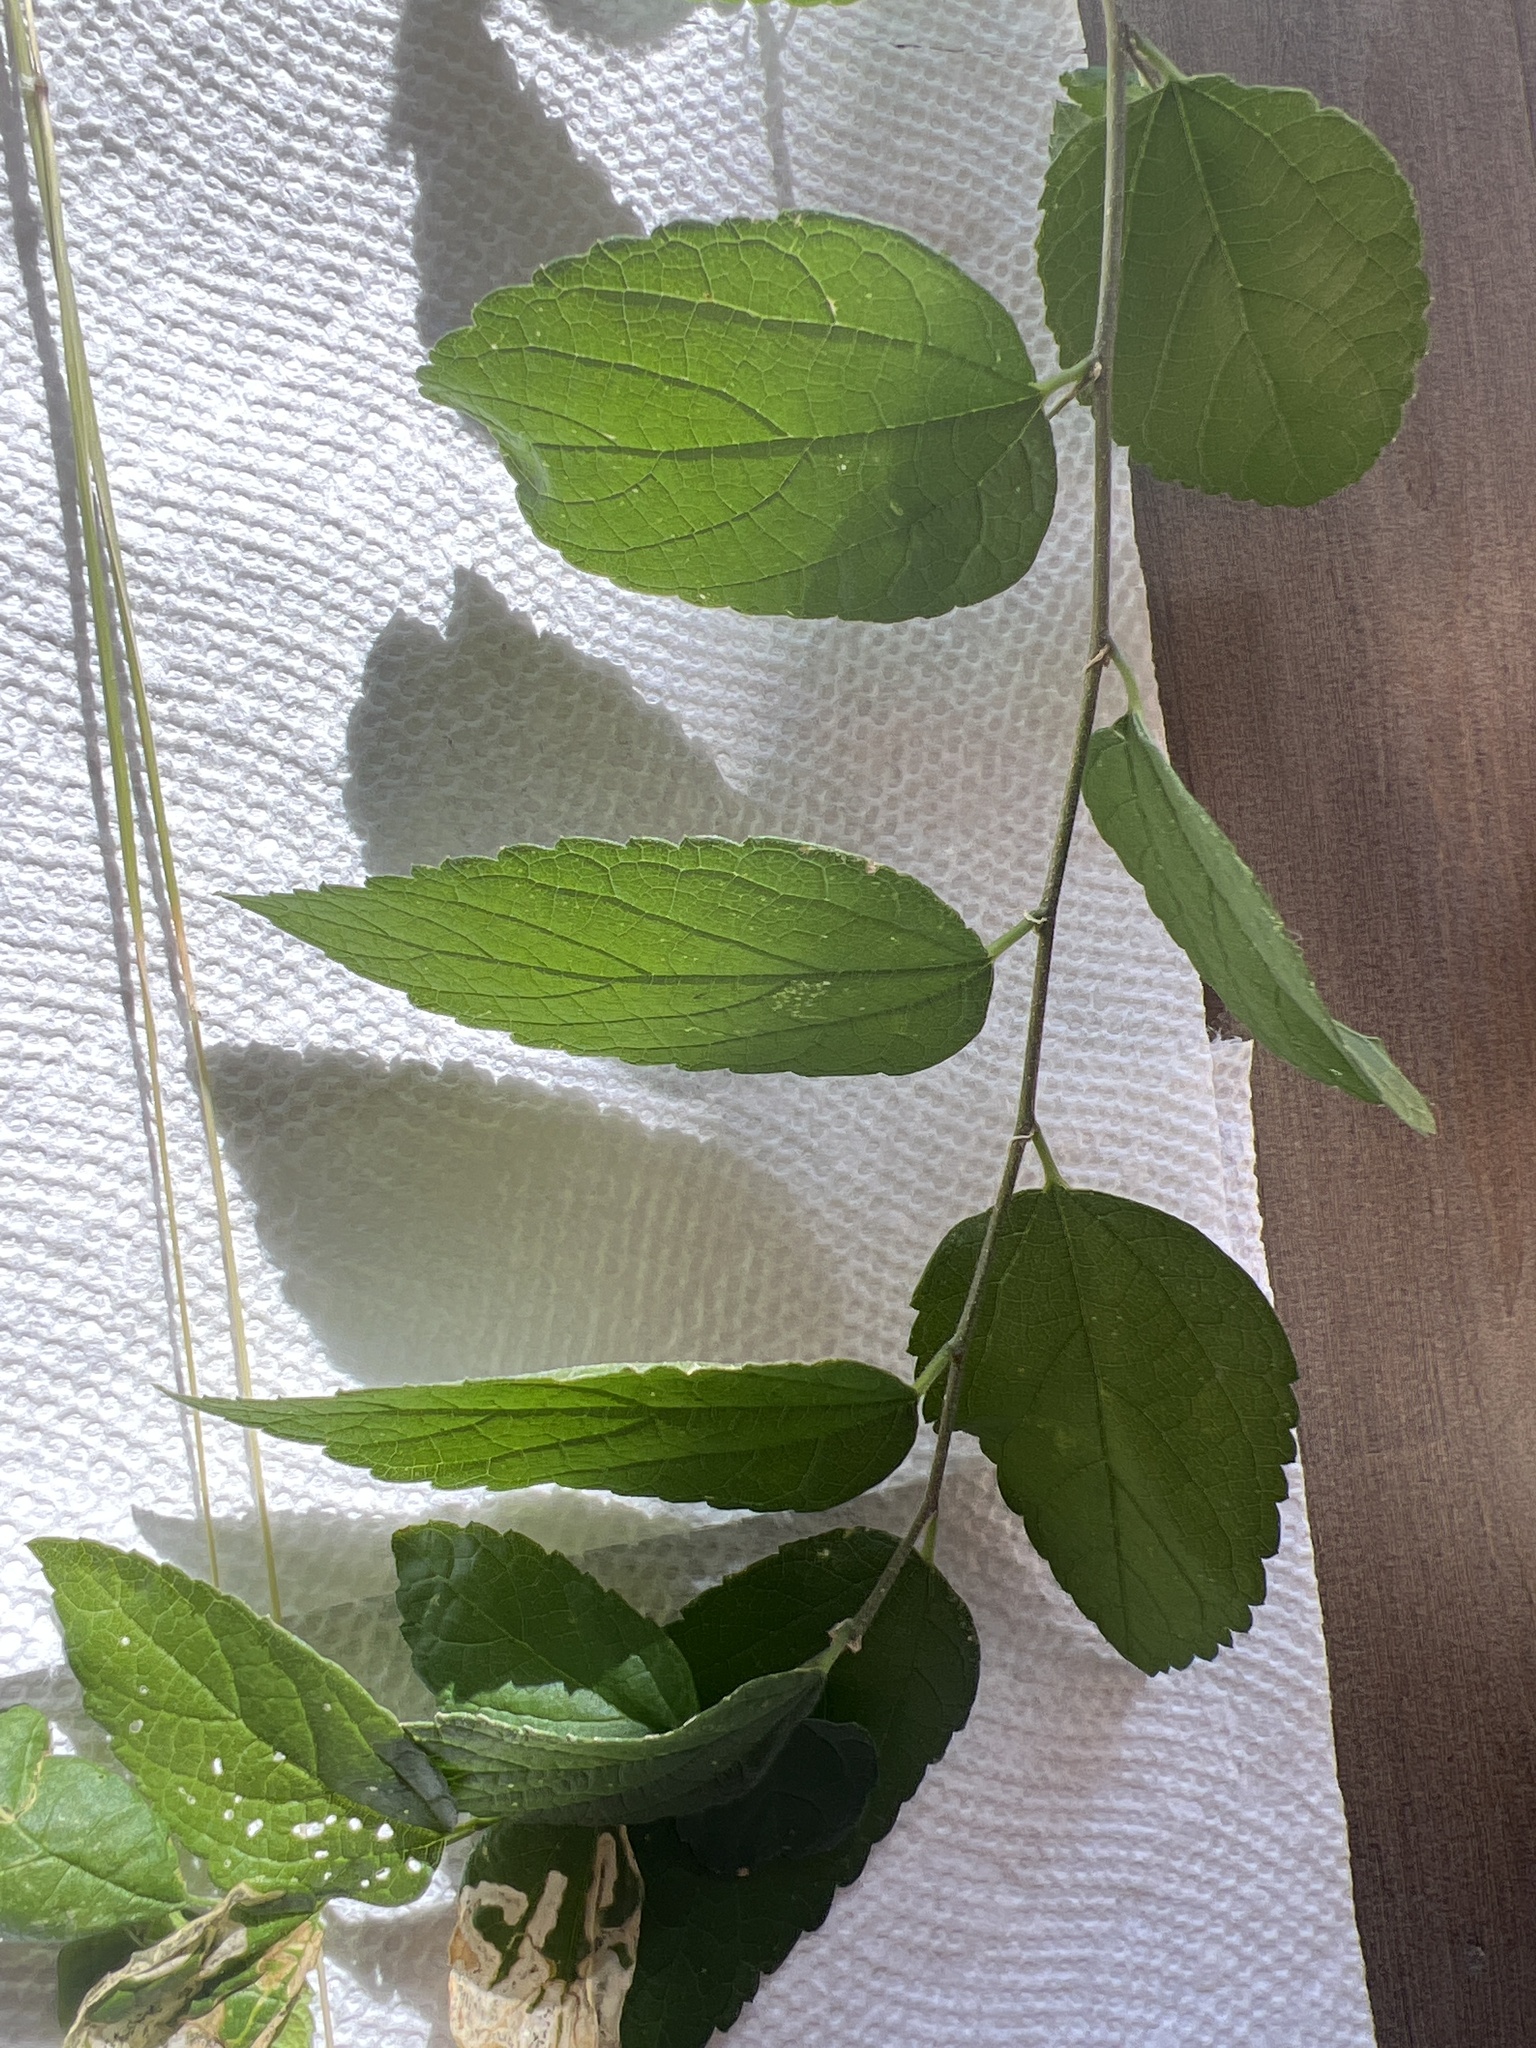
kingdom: Plantae
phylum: Tracheophyta
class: Magnoliopsida
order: Rosales
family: Cannabaceae
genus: Celtis
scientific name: Celtis laevigata
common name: Sugarberry
